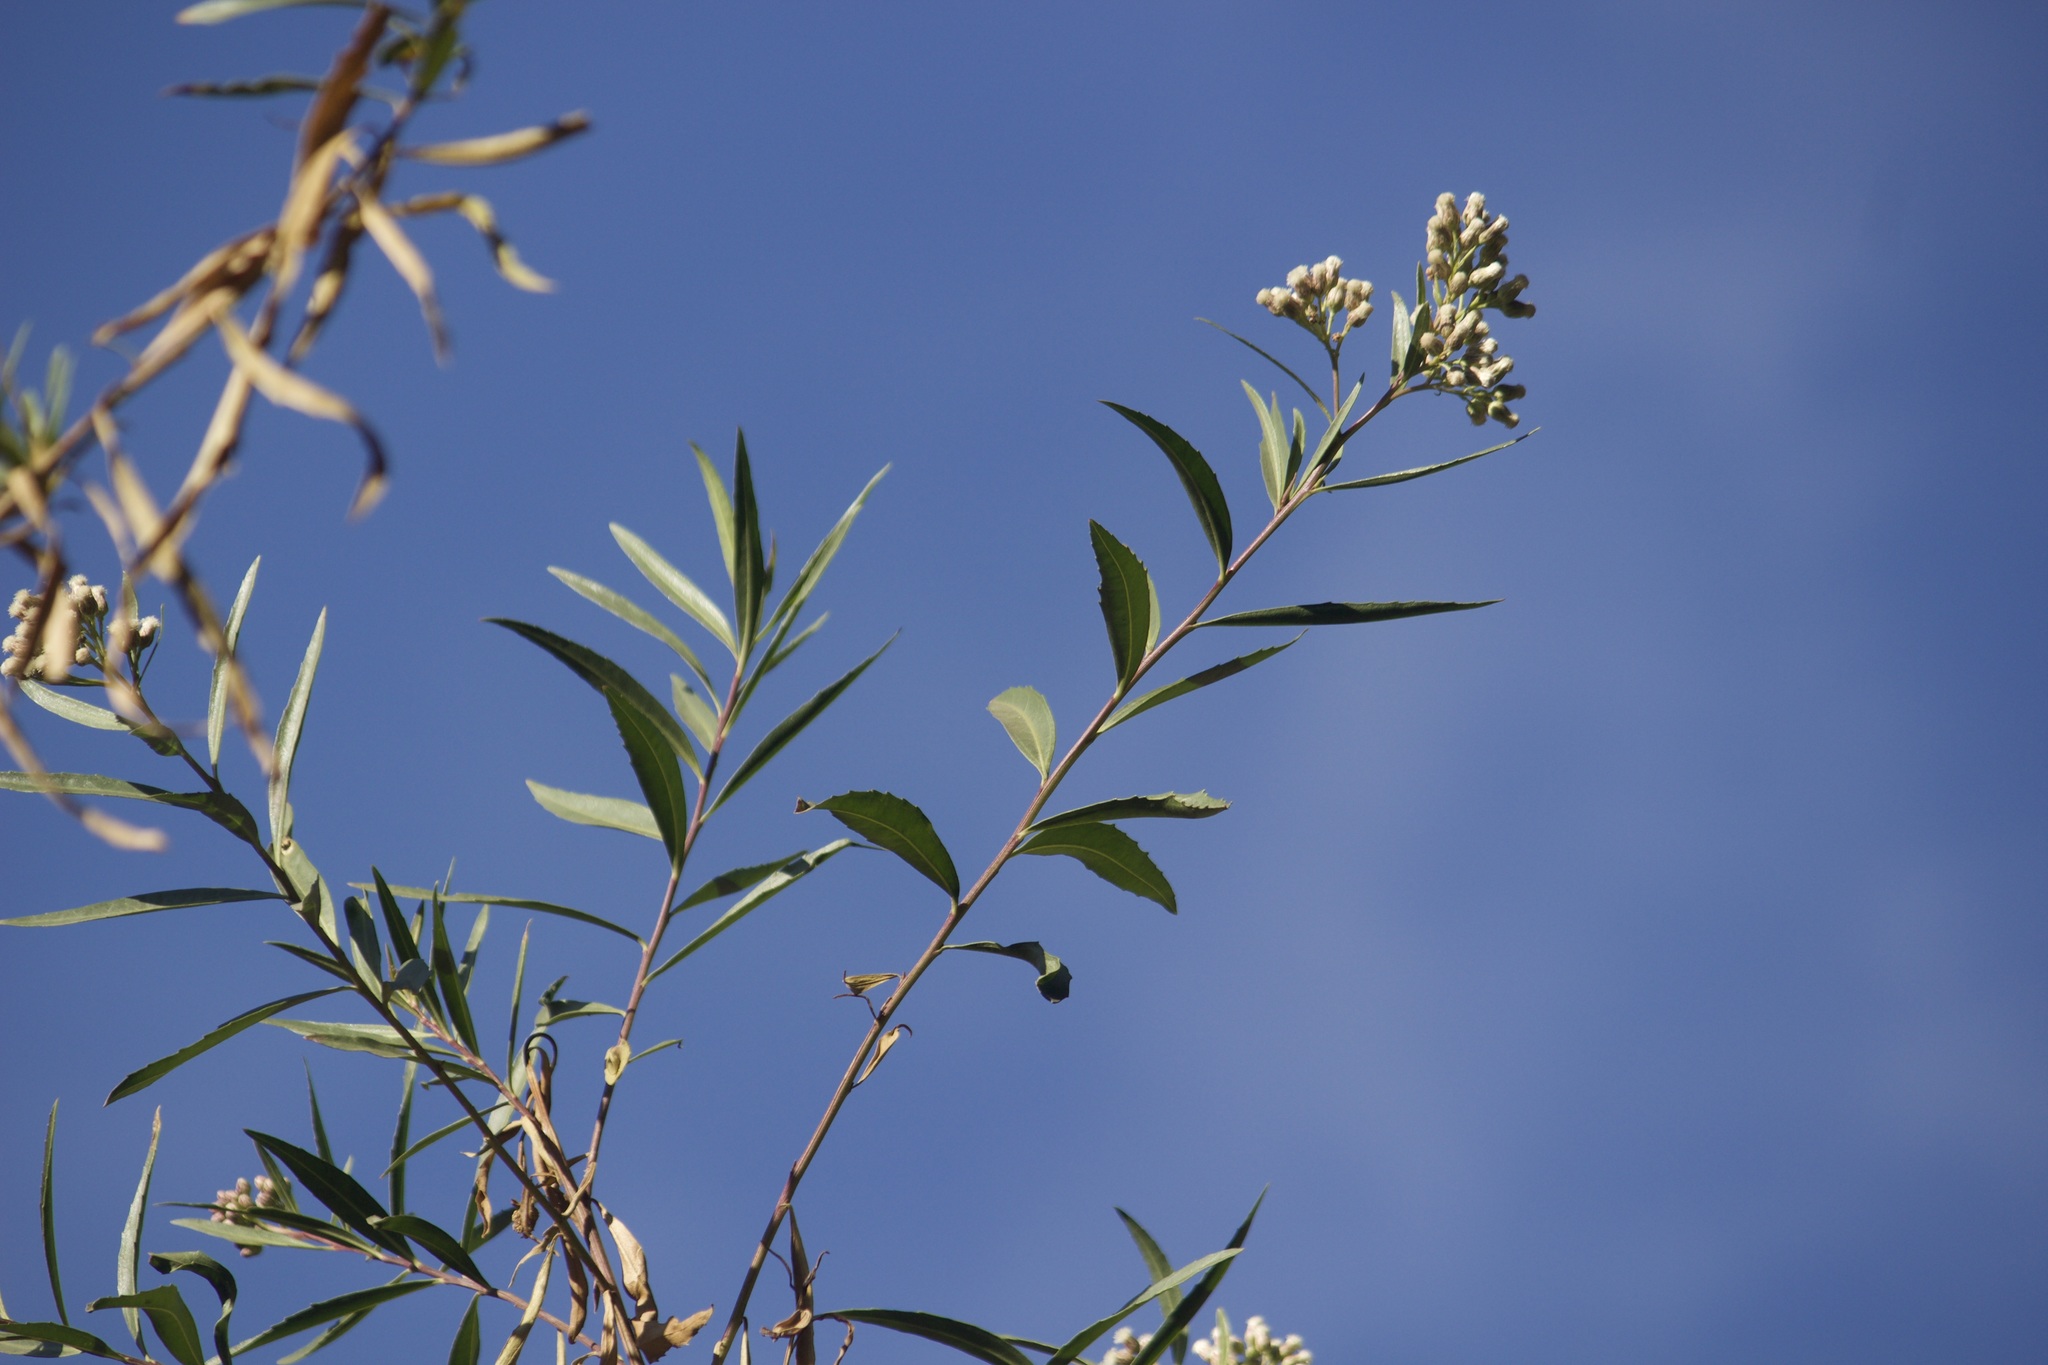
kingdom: Plantae
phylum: Tracheophyta
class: Magnoliopsida
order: Asterales
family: Asteraceae
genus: Baccharis
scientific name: Baccharis salicifolia
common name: Sticky baccharis
